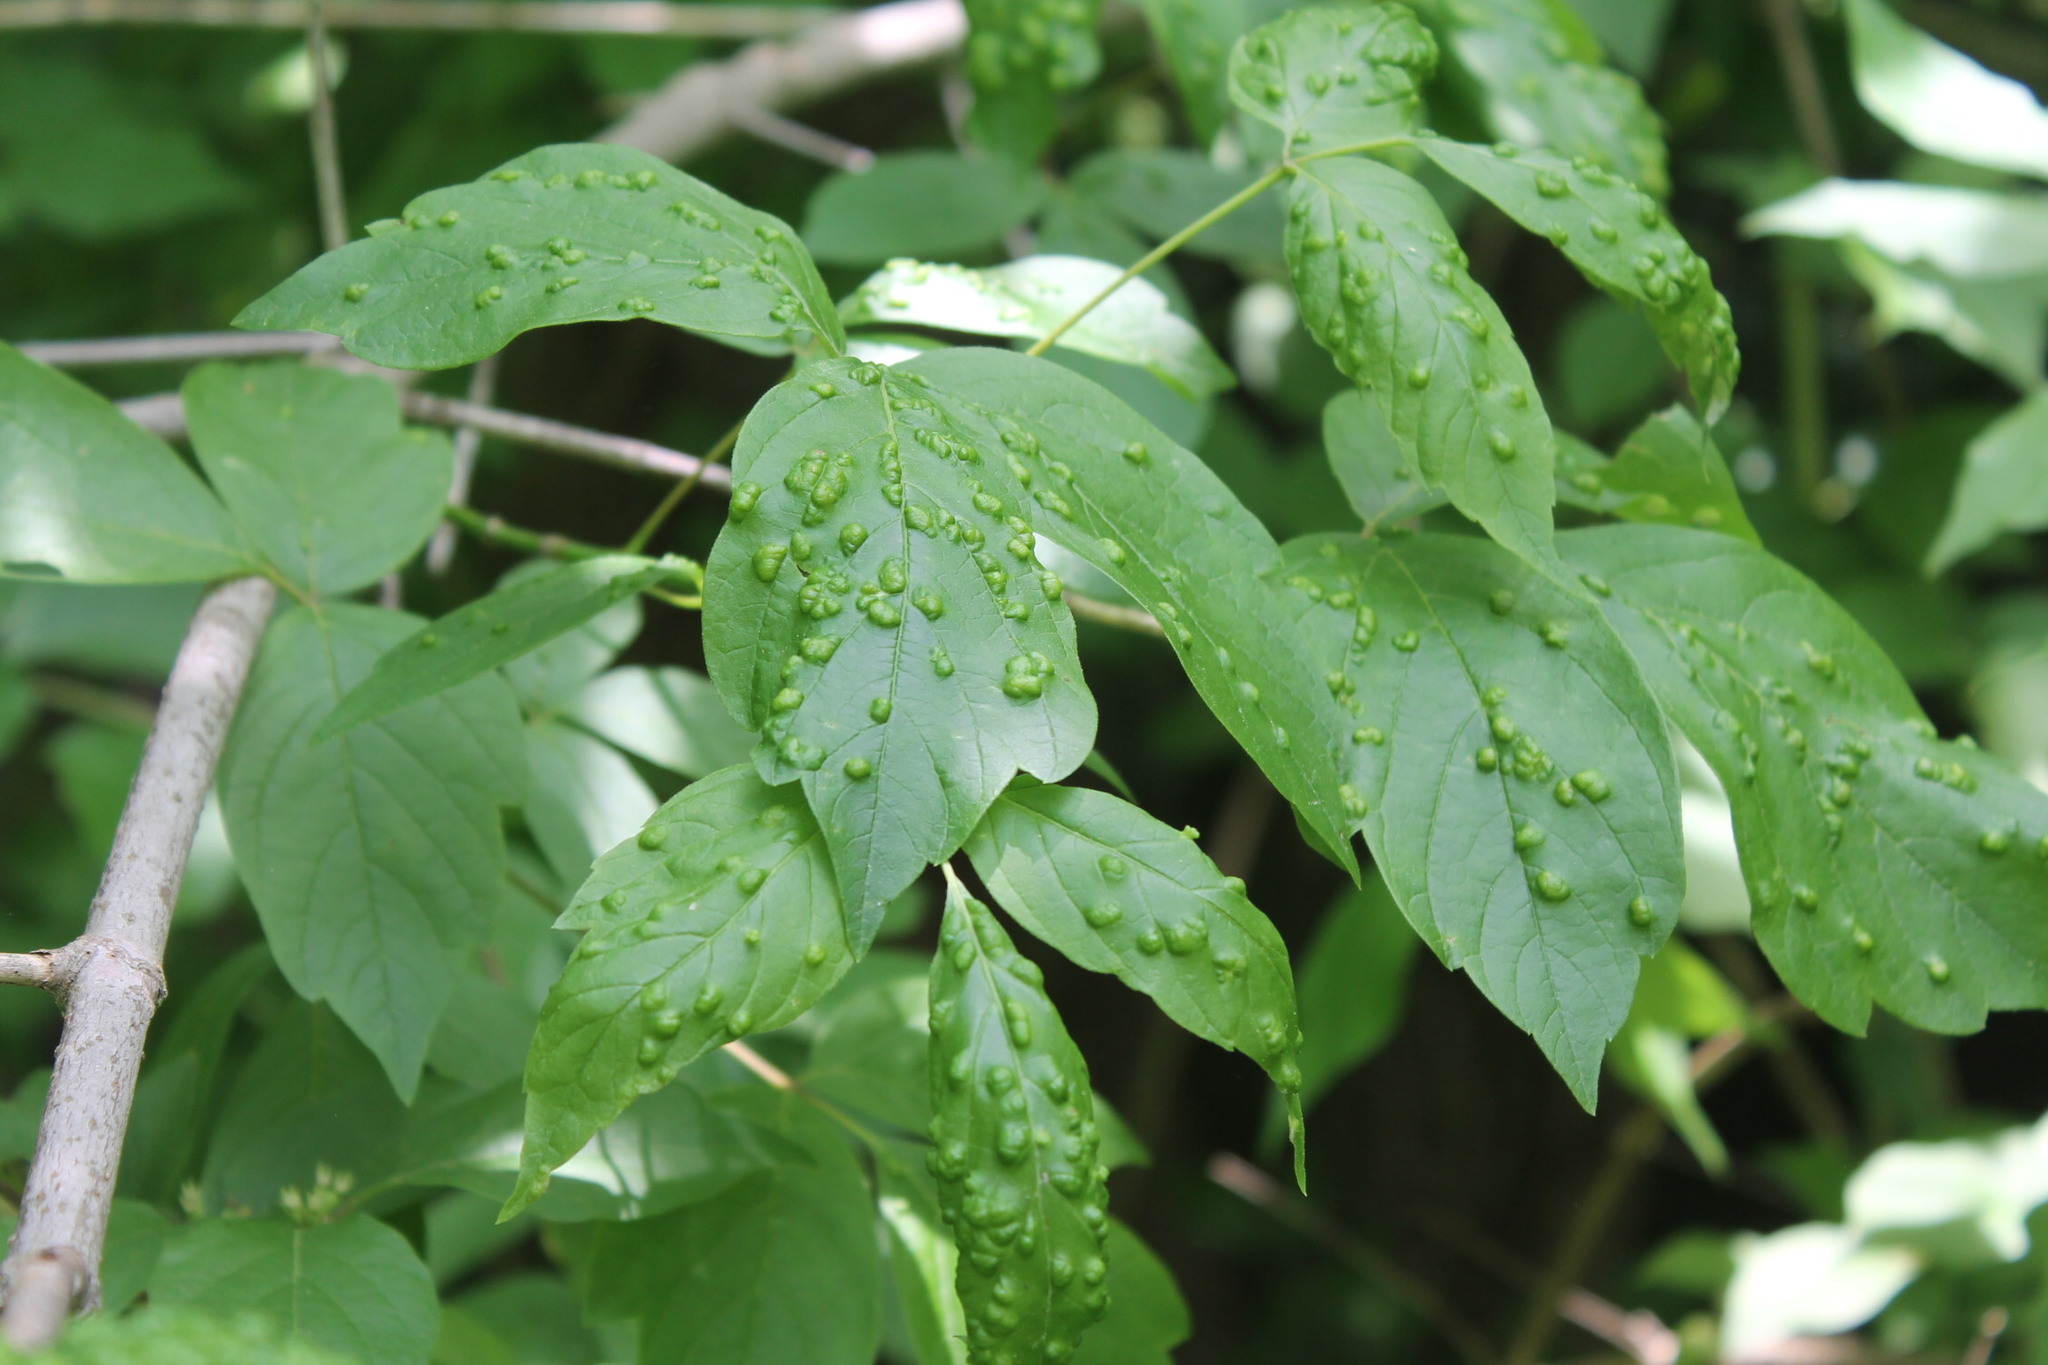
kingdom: Animalia
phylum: Arthropoda
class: Arachnida
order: Trombidiformes
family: Eriophyidae
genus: Aceria
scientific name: Aceria
